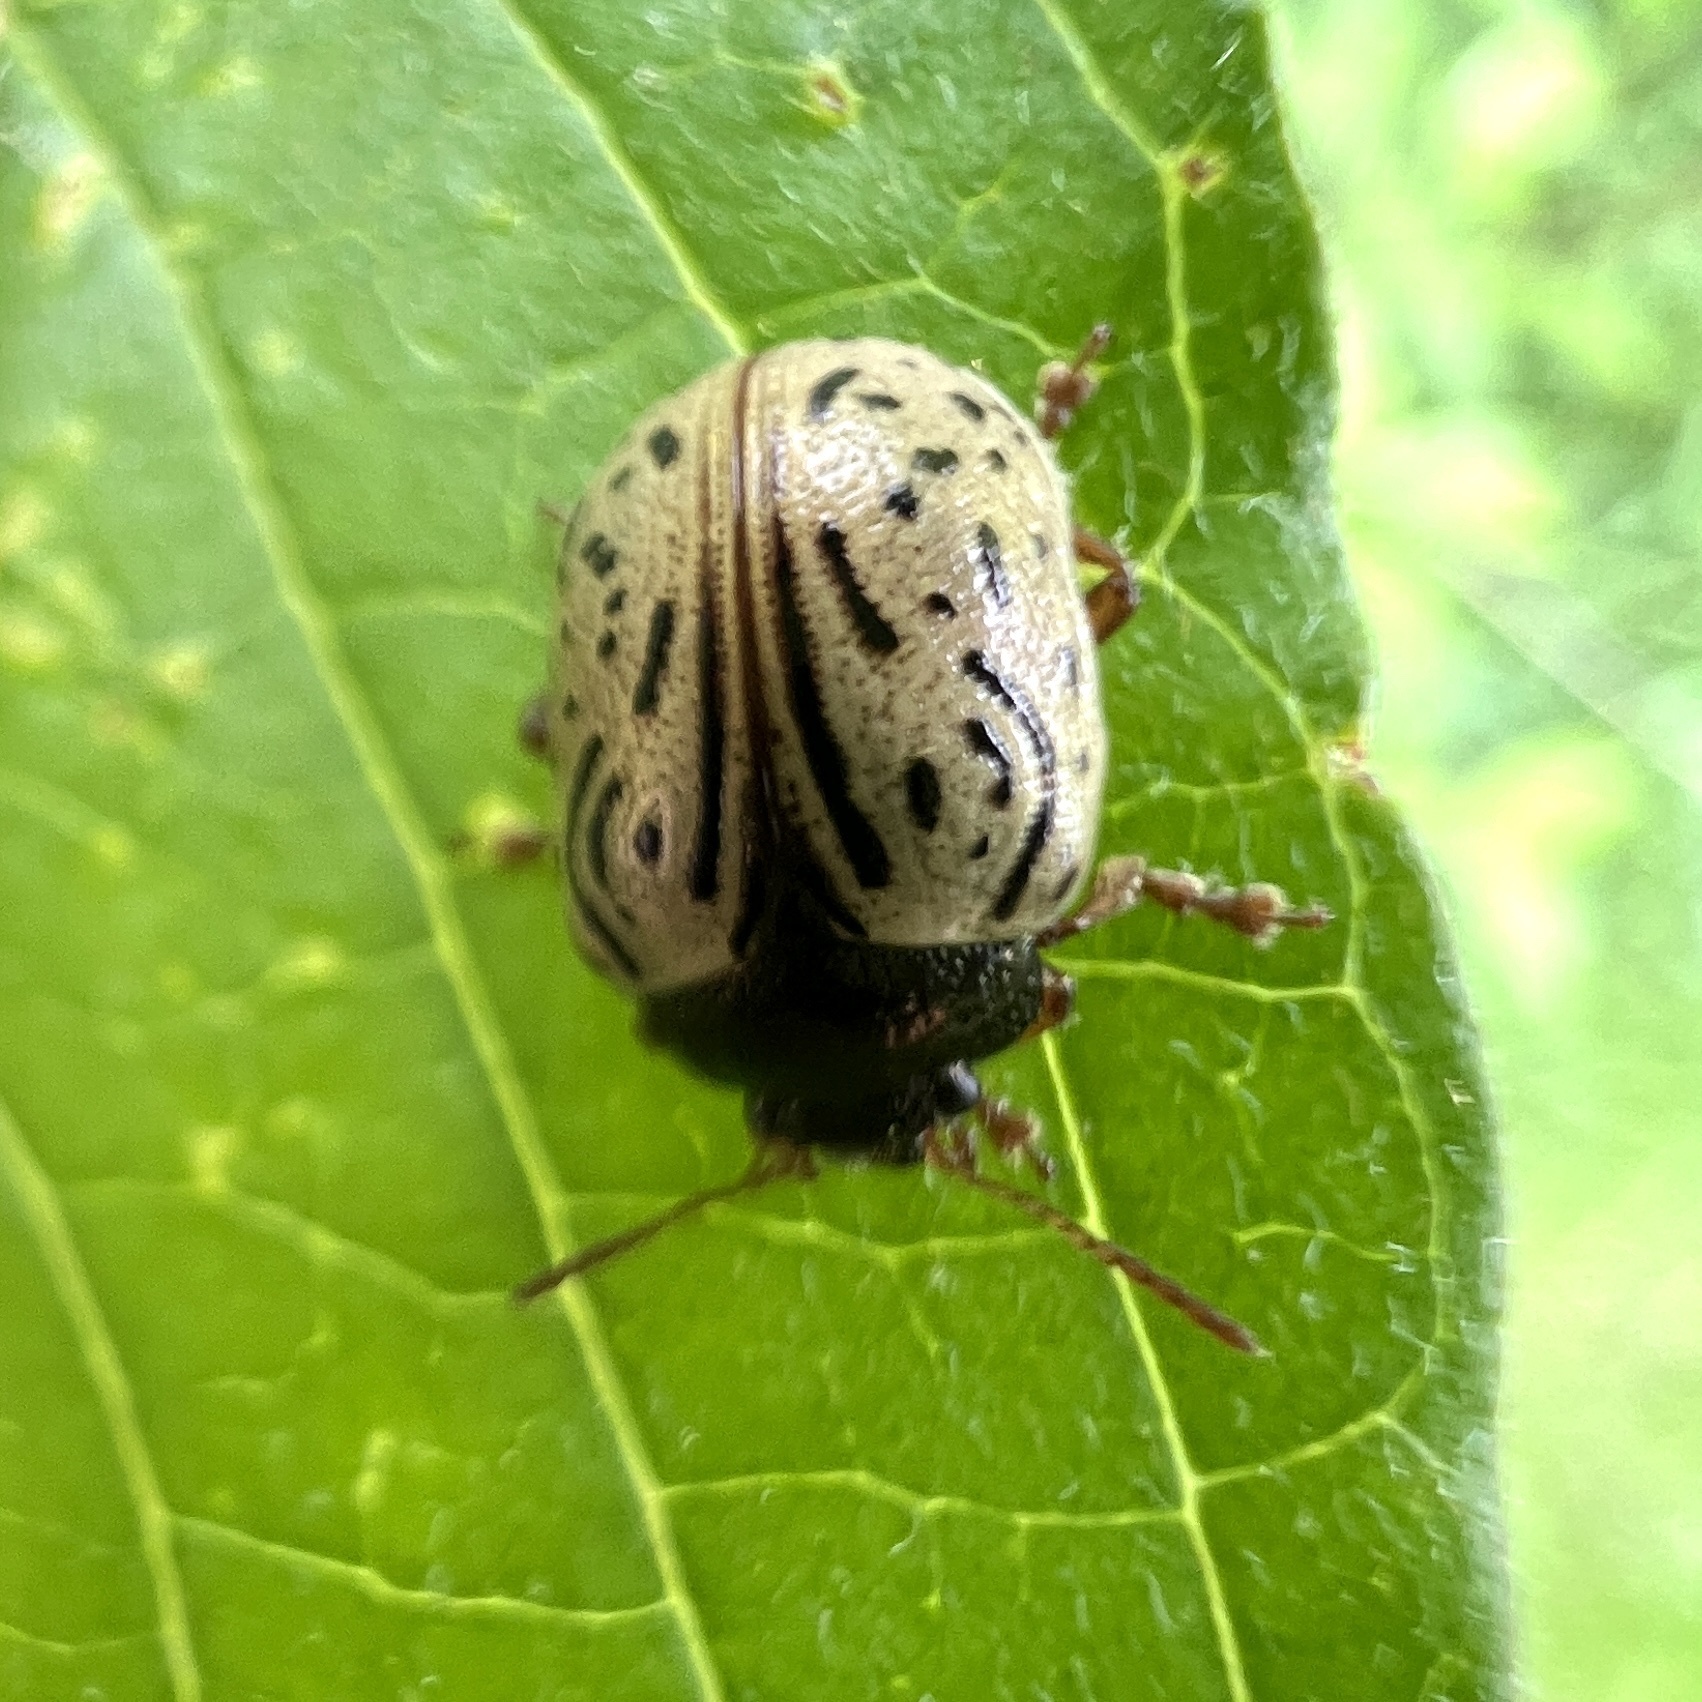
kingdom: Animalia
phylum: Arthropoda
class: Insecta
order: Coleoptera
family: Chrysomelidae
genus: Calligrapha
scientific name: Calligrapha philadelphica
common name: Dogwood leaf beetle
